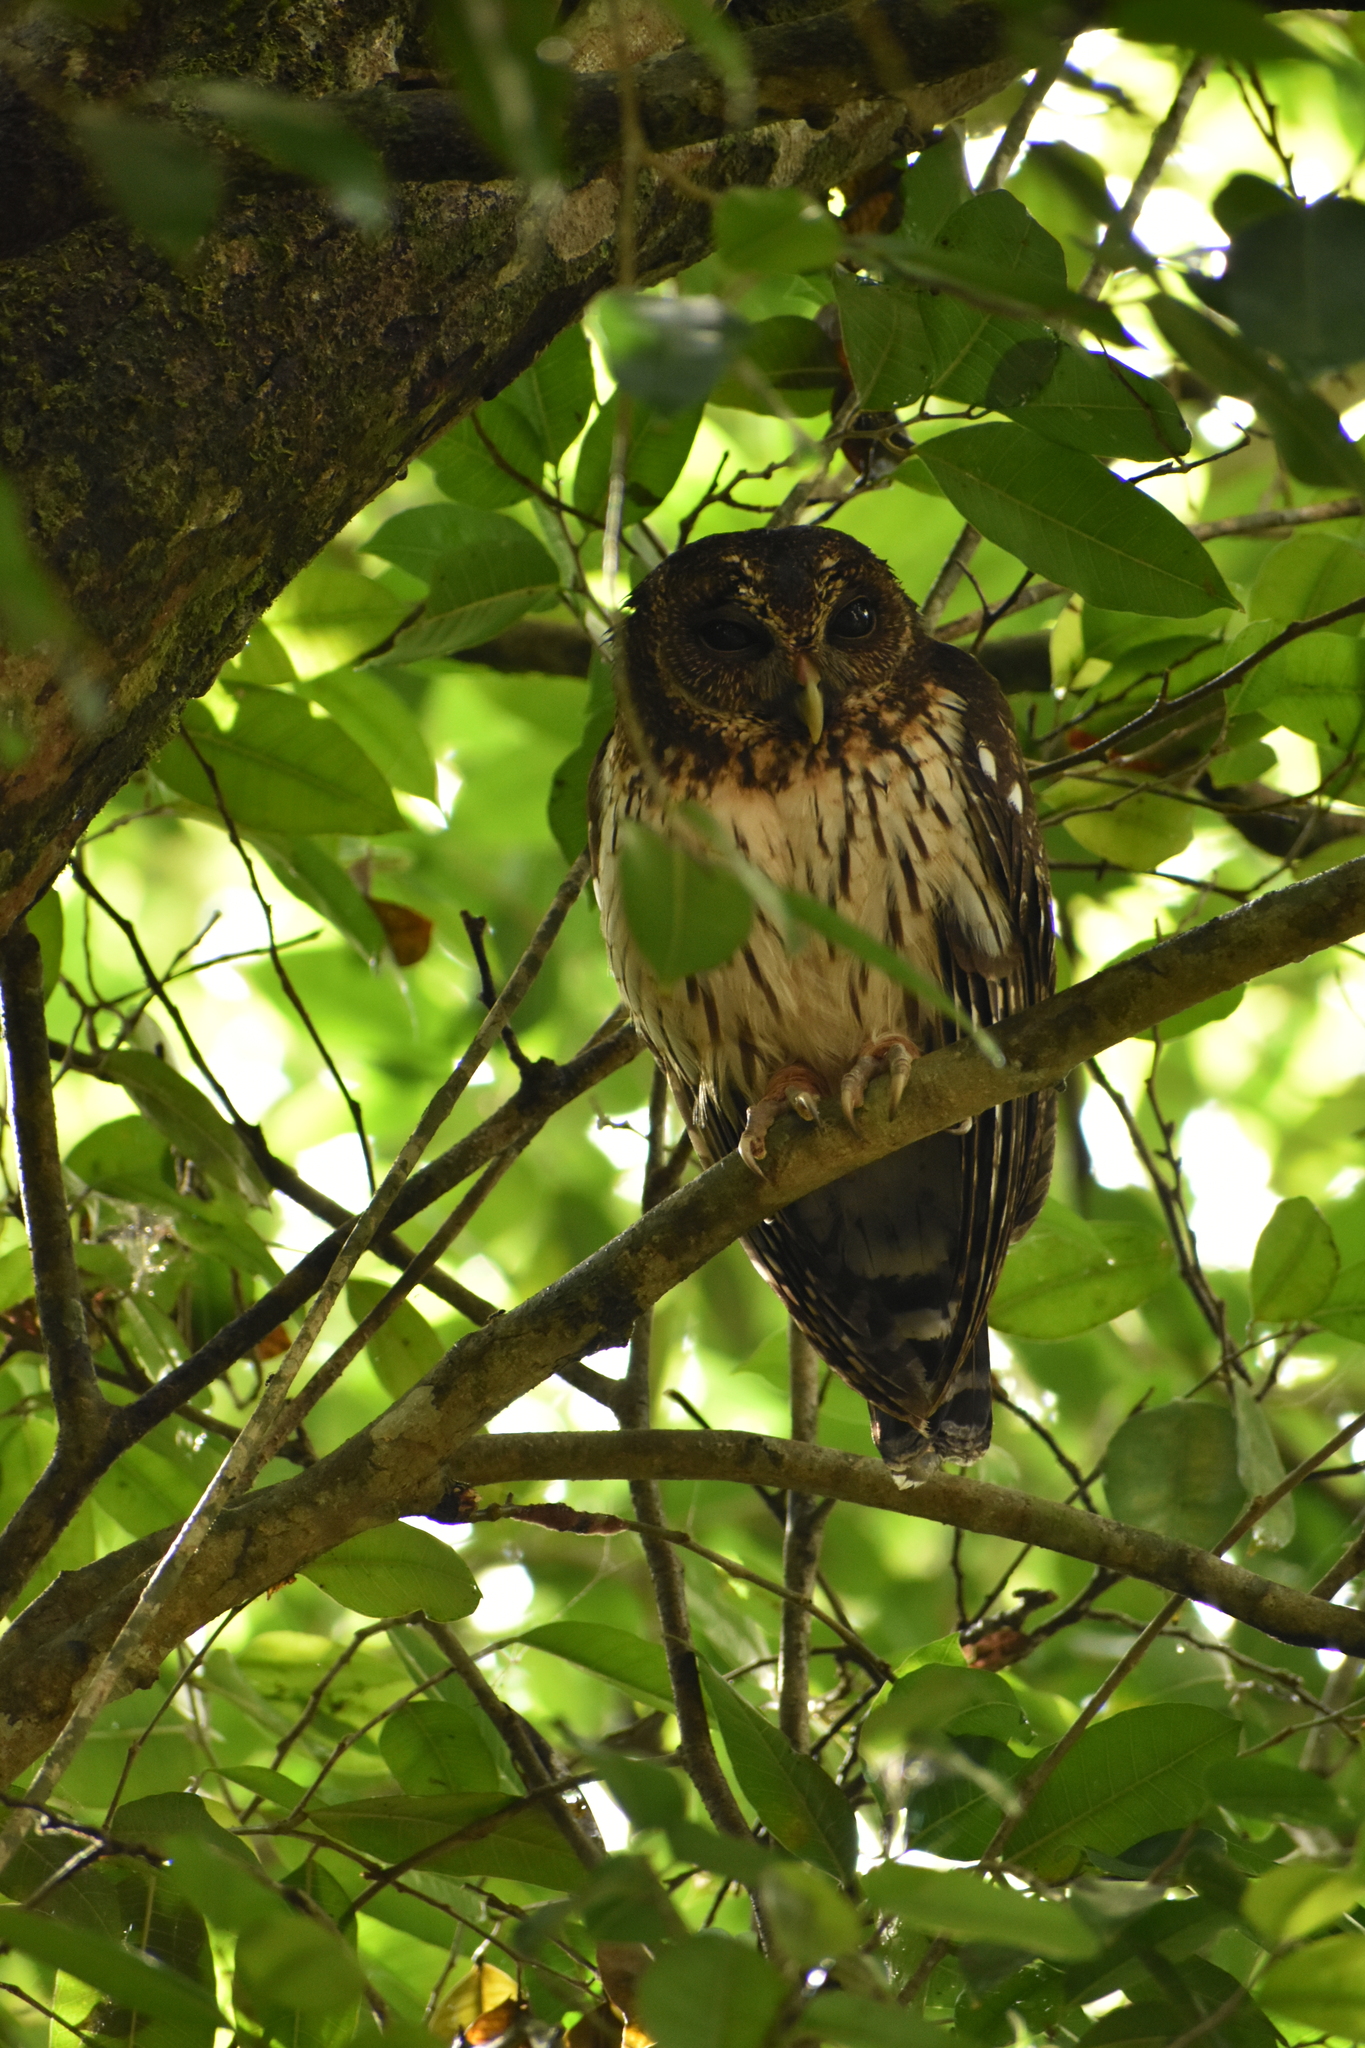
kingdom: Animalia
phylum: Chordata
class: Aves
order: Strigiformes
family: Strigidae
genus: Strix
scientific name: Strix virgata
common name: Mottled owl
